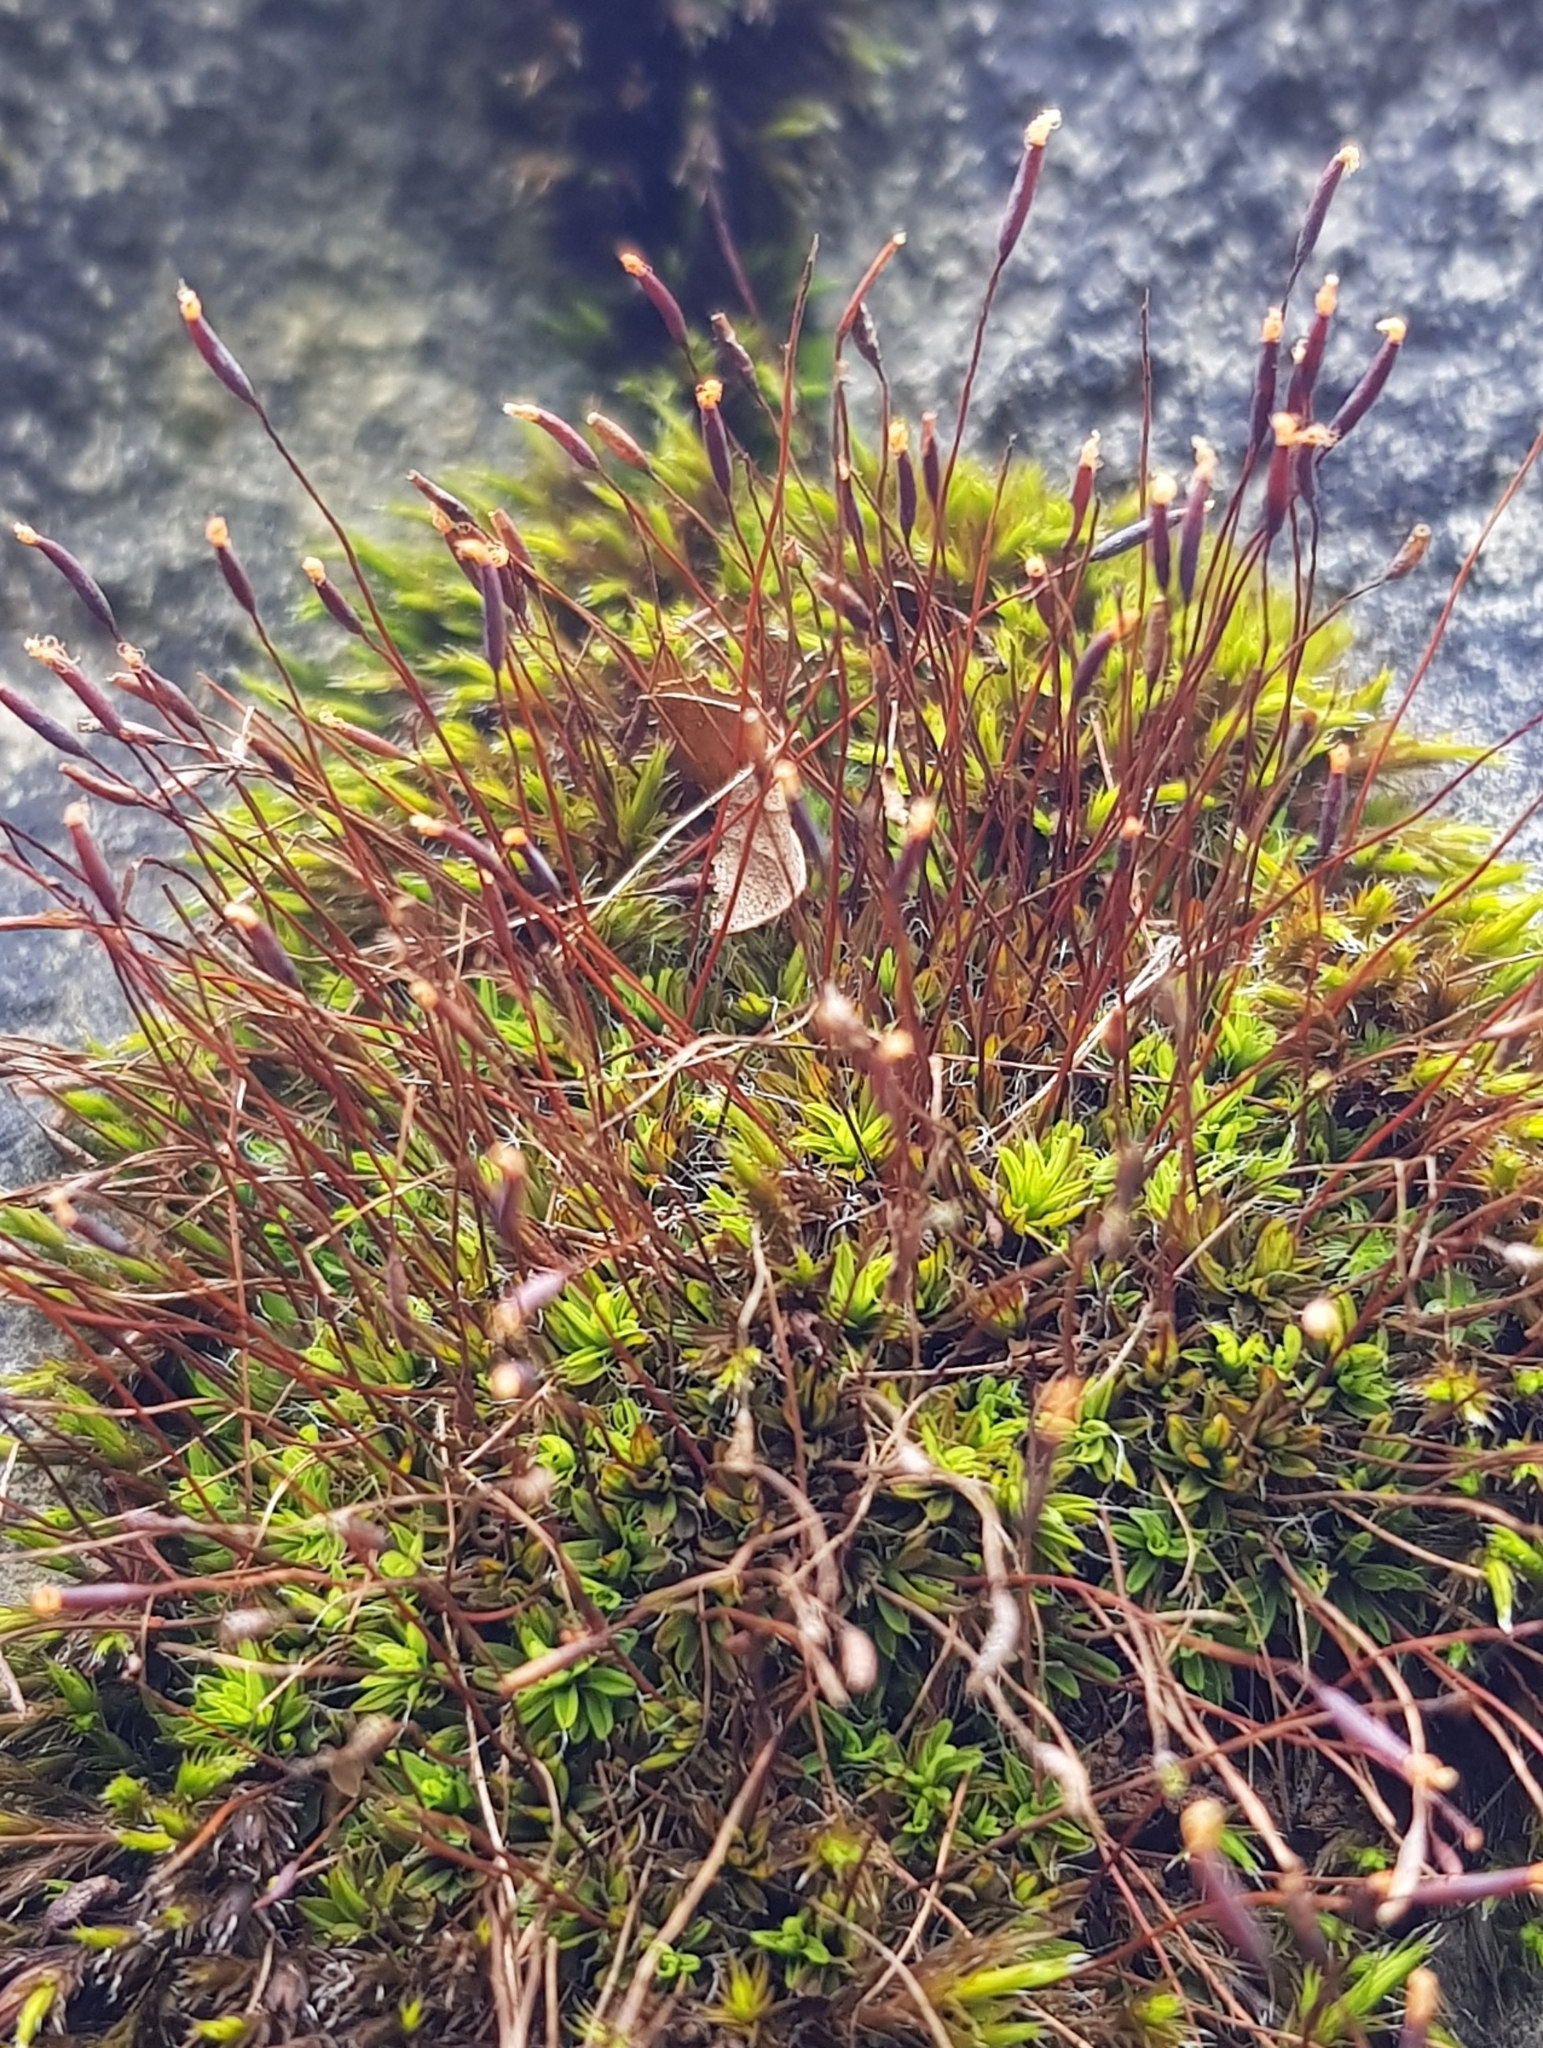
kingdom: Plantae
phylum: Bryophyta
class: Bryopsida
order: Pottiales
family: Pottiaceae
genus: Tortula
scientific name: Tortula muralis
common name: Wall screw-moss
